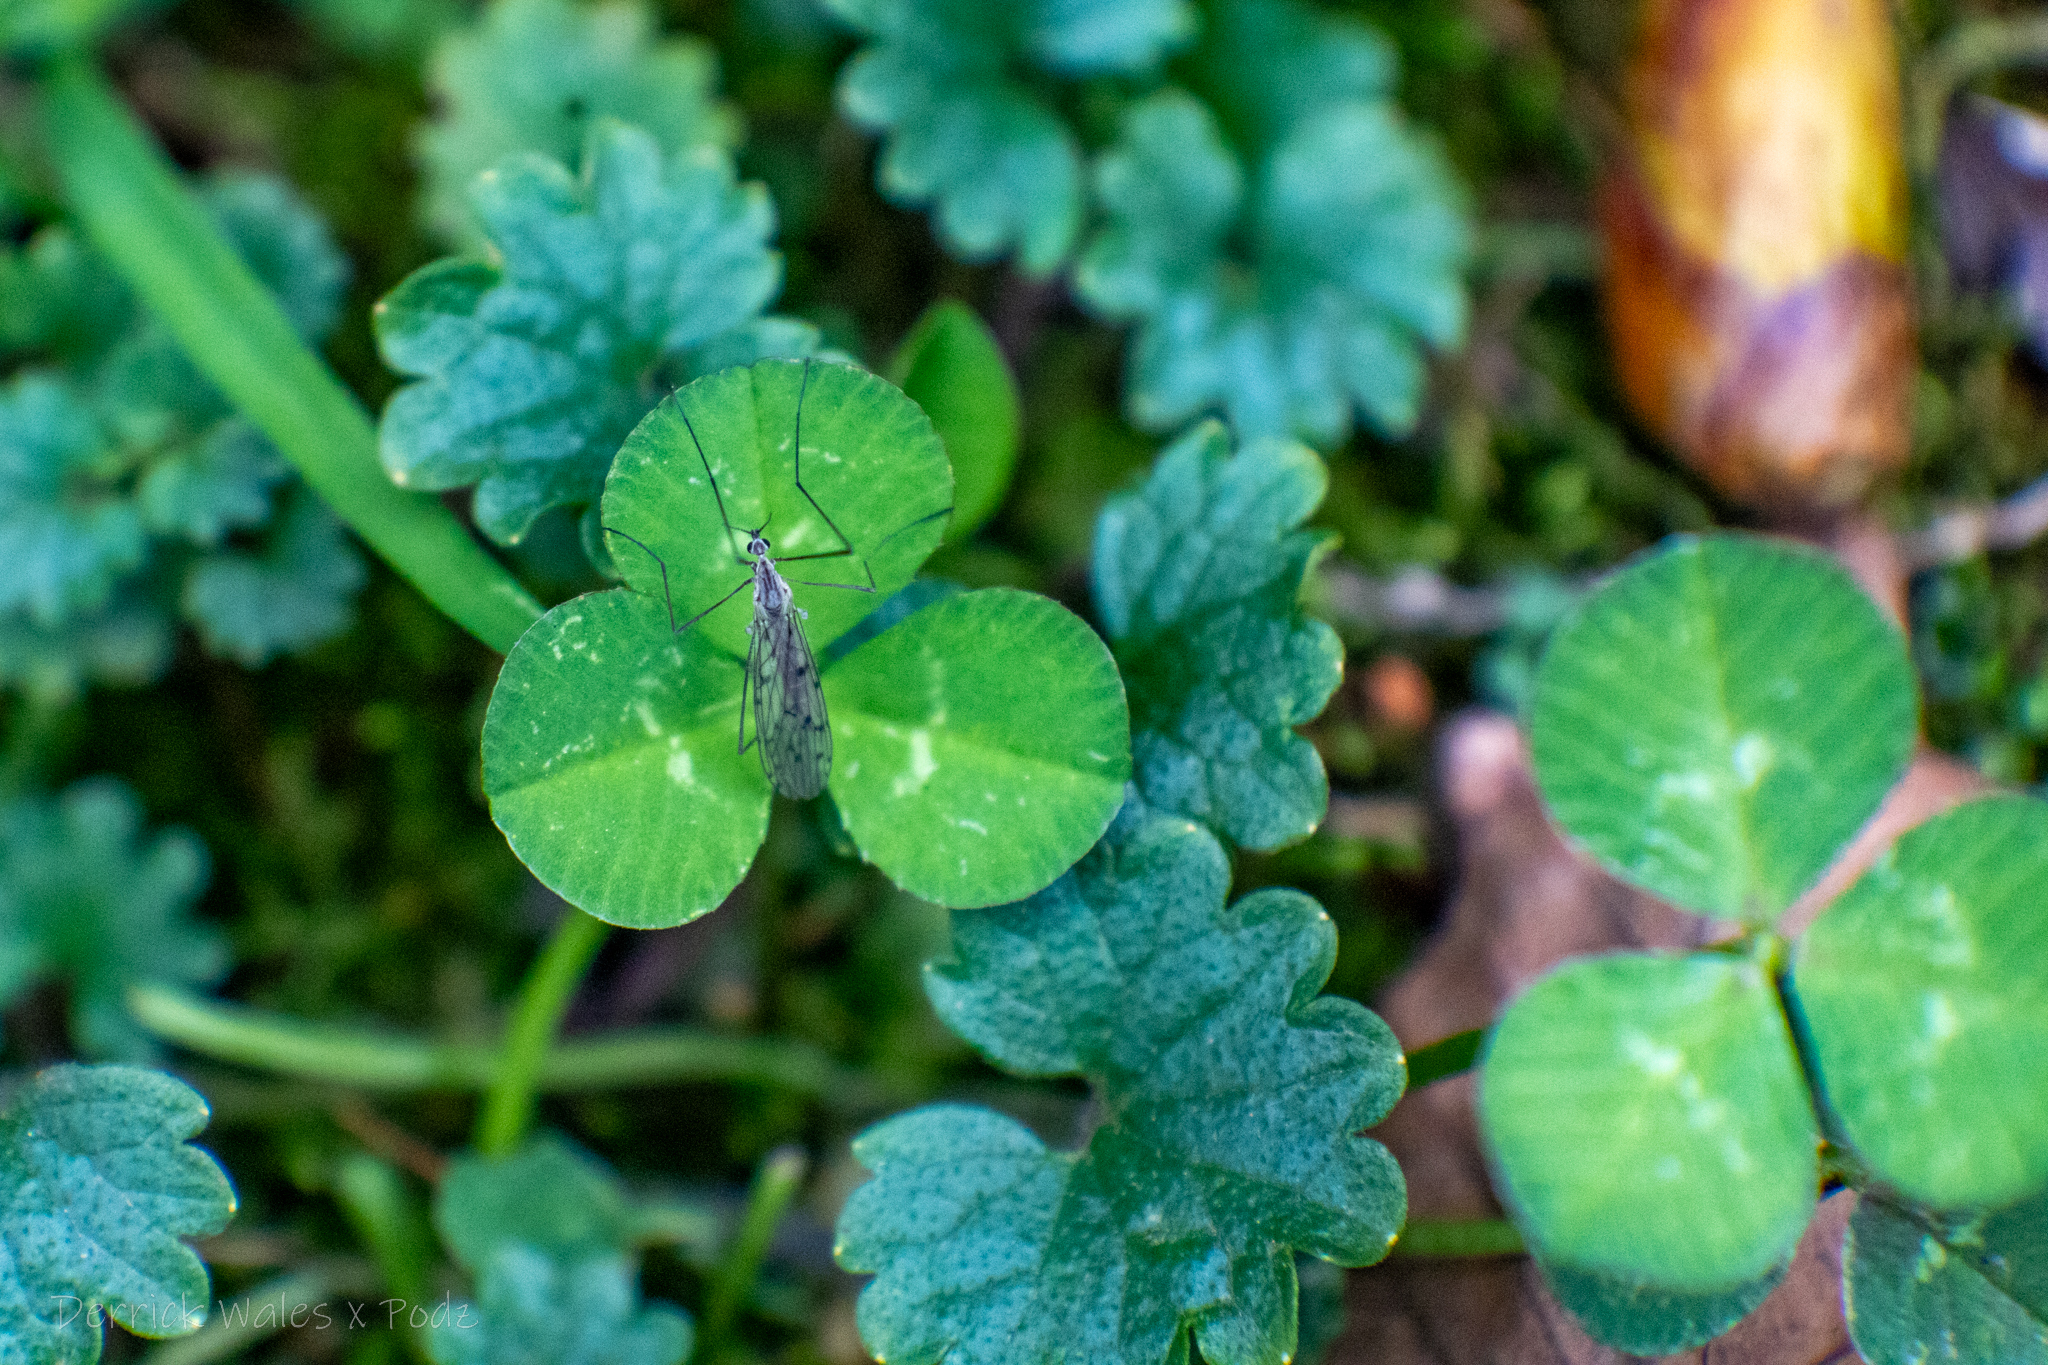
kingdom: Plantae
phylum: Tracheophyta
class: Magnoliopsida
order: Fabales
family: Fabaceae
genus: Trifolium
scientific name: Trifolium repens
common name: White clover
